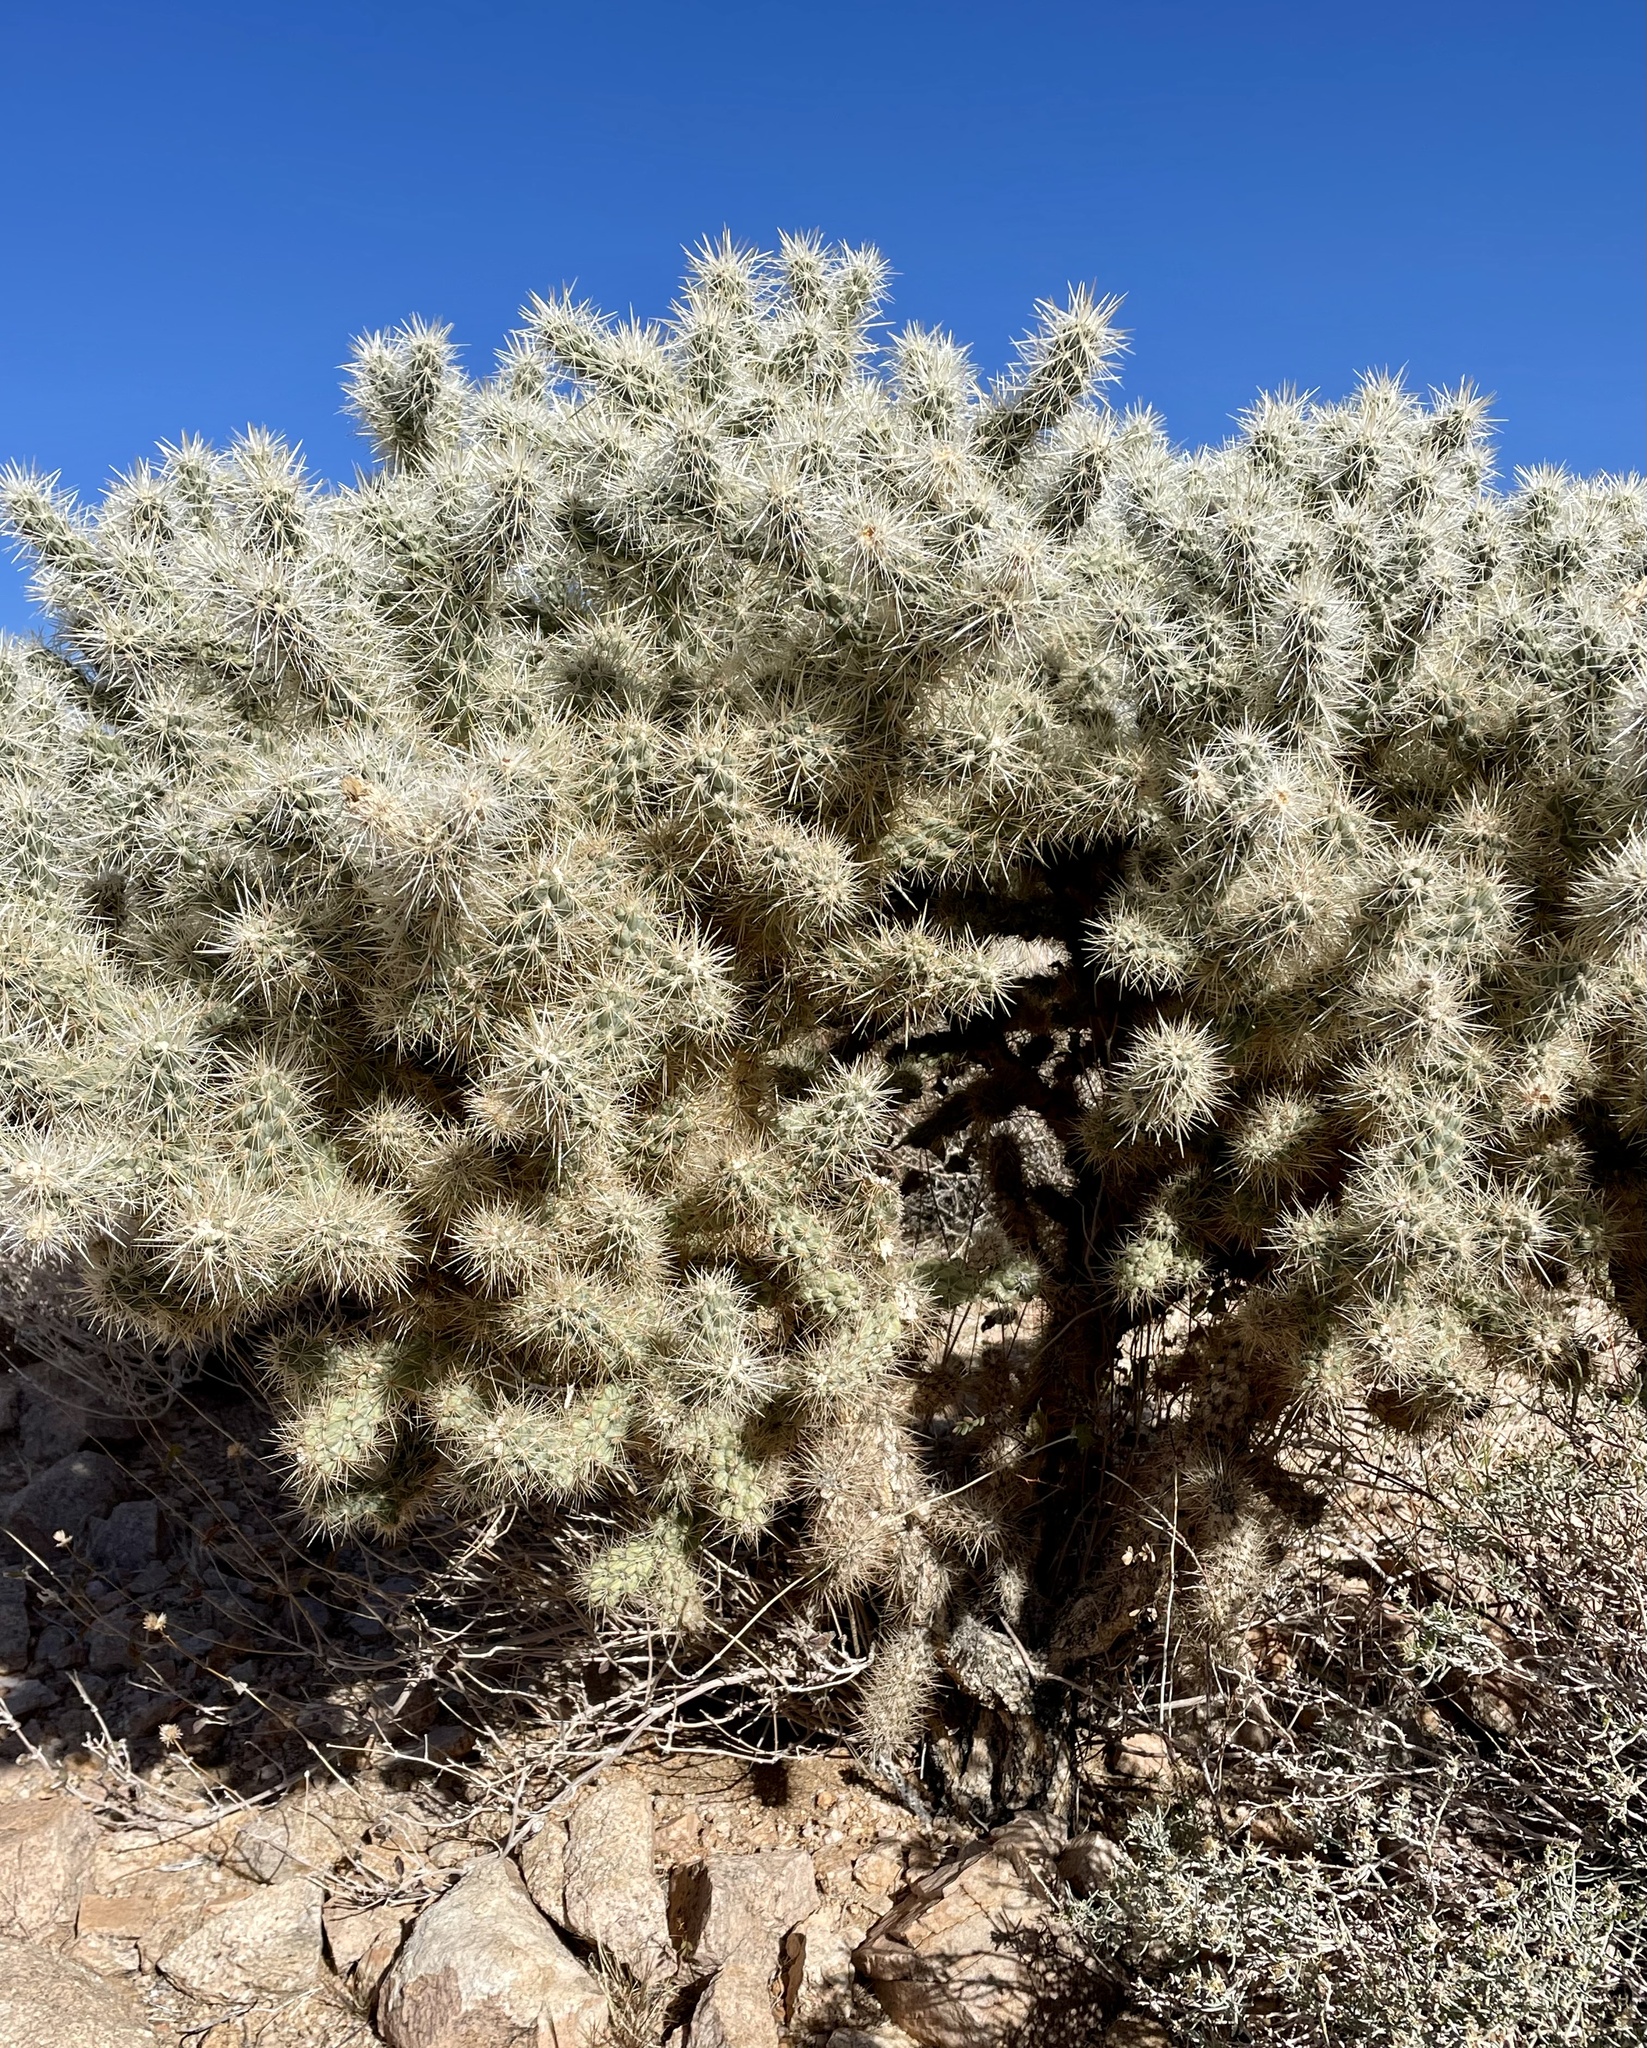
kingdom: Plantae
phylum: Tracheophyta
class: Magnoliopsida
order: Caryophyllales
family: Cactaceae
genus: Cylindropuntia
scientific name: Cylindropuntia echinocarpa
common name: Ground cholla
